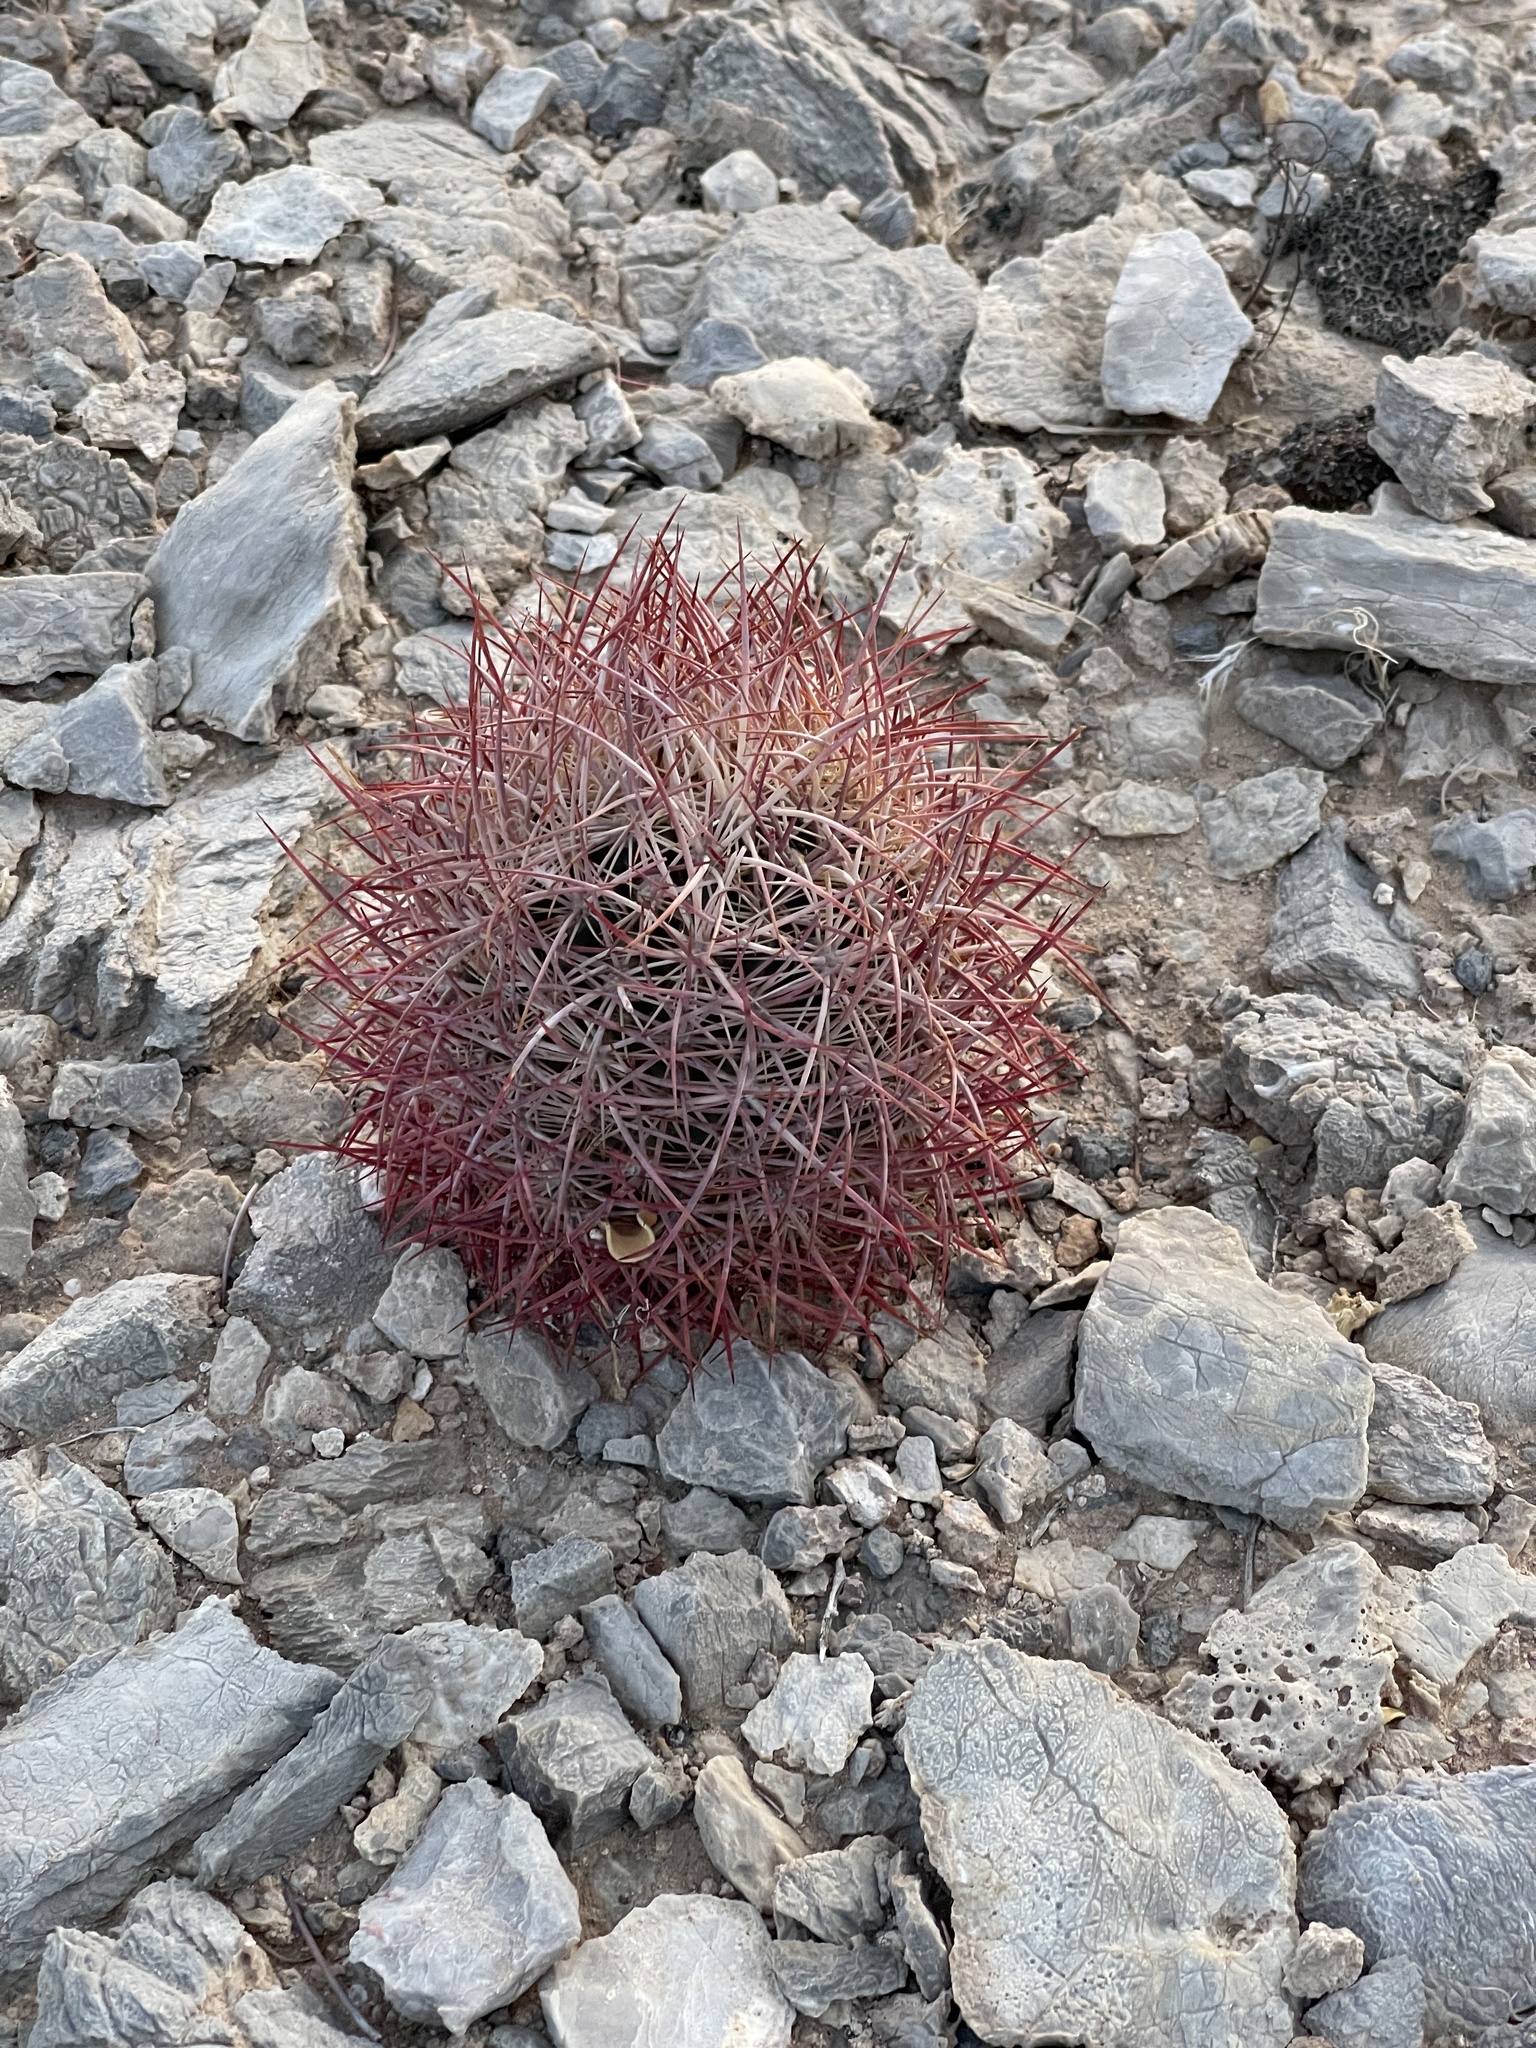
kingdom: Plantae
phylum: Tracheophyta
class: Magnoliopsida
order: Caryophyllales
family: Cactaceae
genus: Sclerocactus
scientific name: Sclerocactus johnsonii
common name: Eight-spine fishhook cactus
